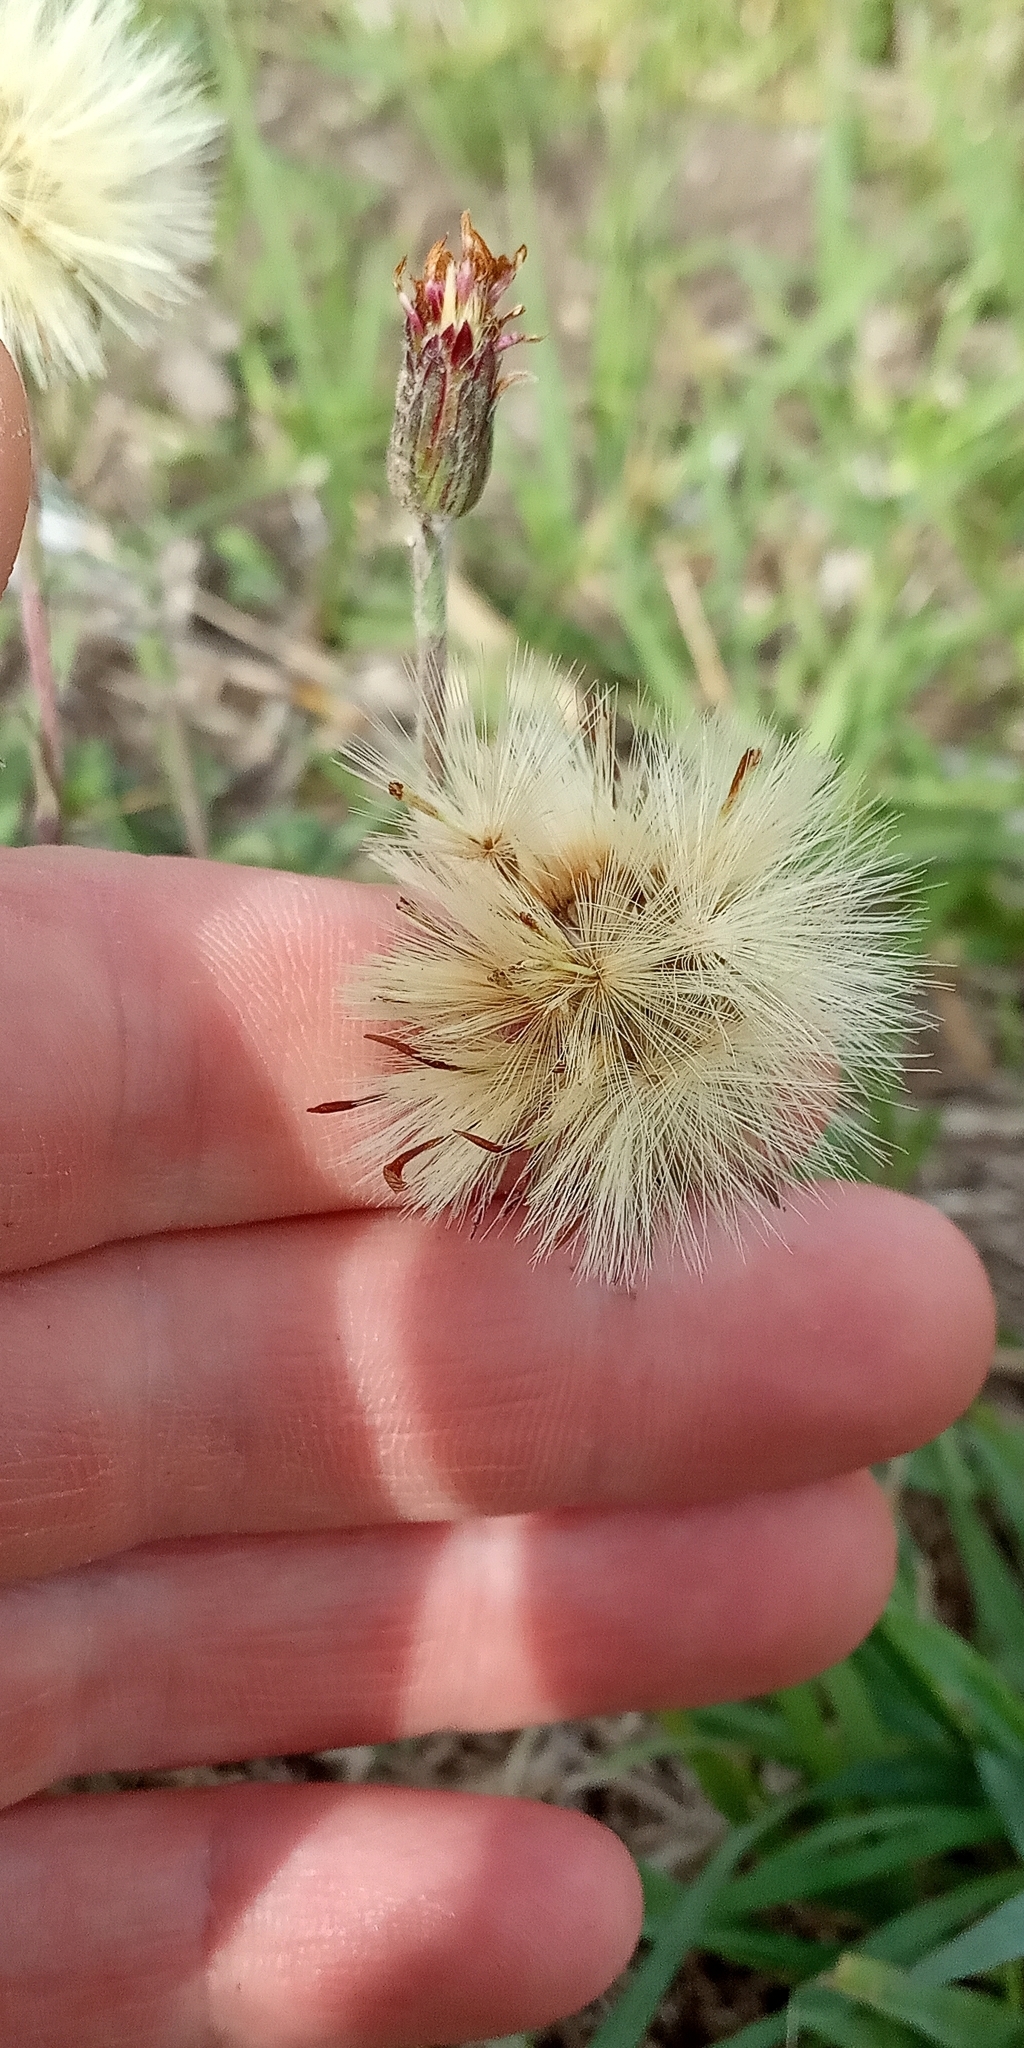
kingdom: Plantae
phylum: Tracheophyta
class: Magnoliopsida
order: Asterales
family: Asteraceae
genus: Noticastrum
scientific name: Noticastrum diffusum
